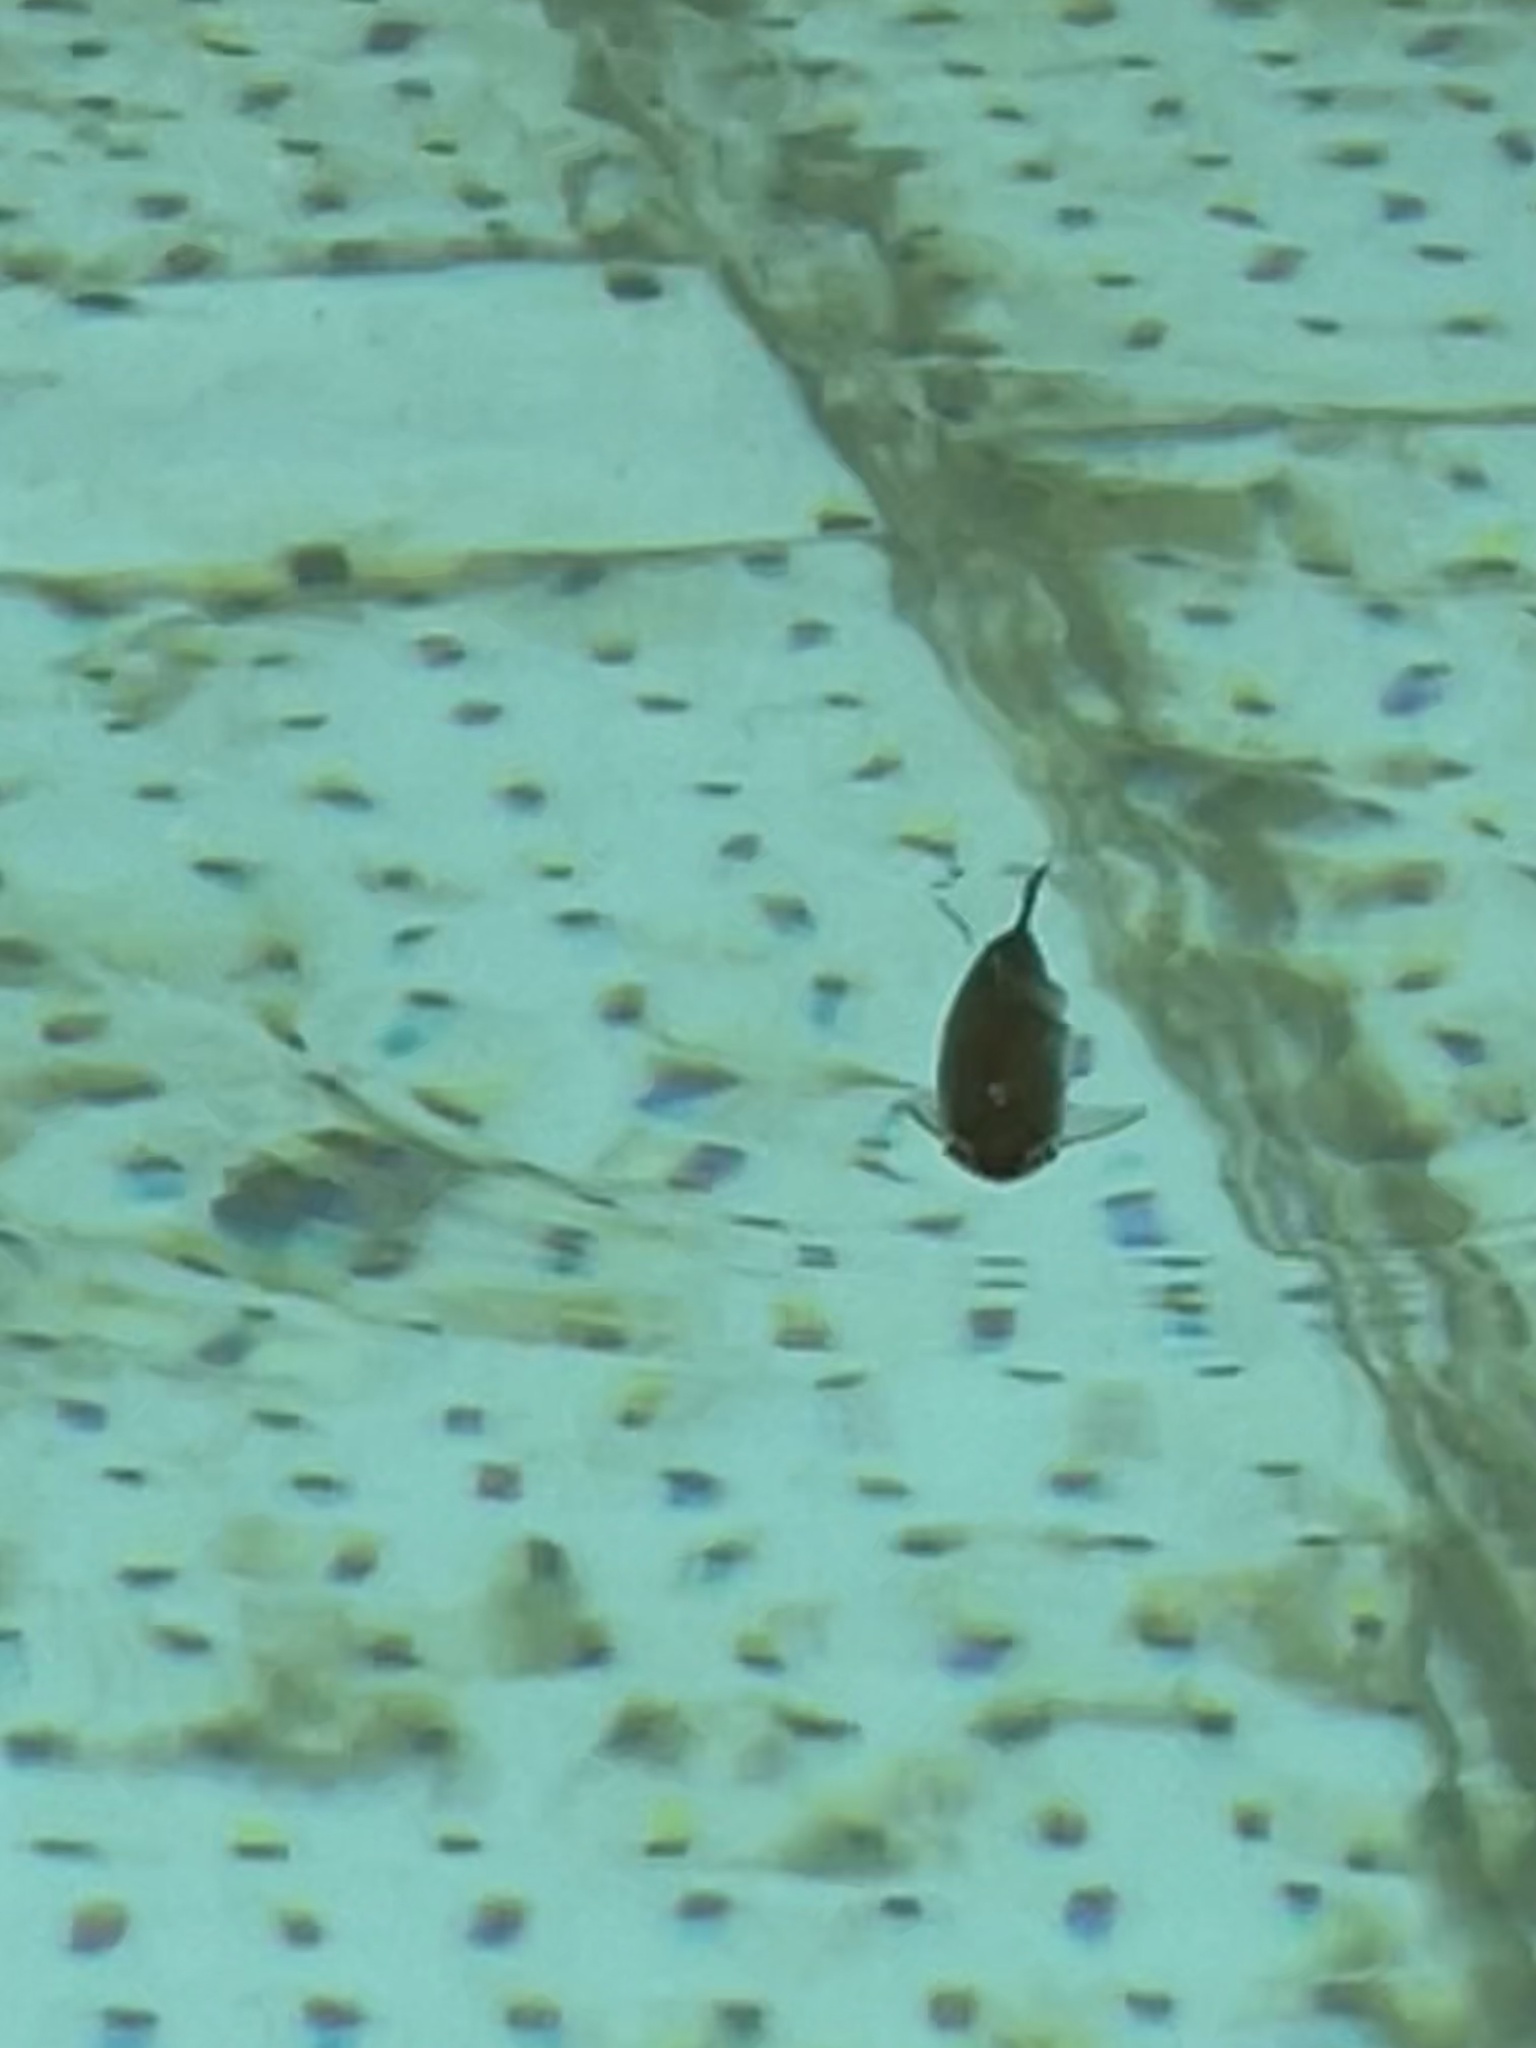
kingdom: Animalia
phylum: Chordata
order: Cypriniformes
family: Cyprinidae
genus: Alburnus
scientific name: Alburnus alburnus
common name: Bleak
